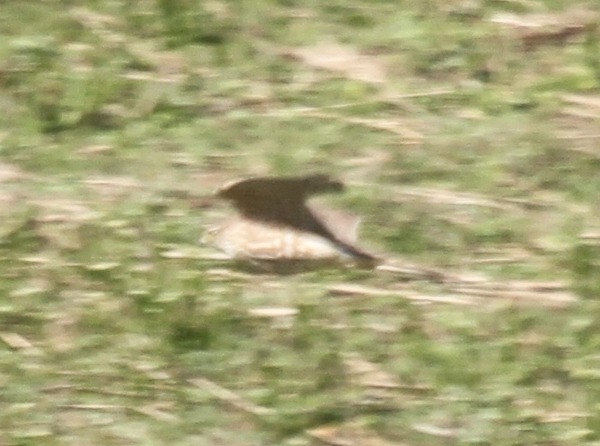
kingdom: Animalia
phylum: Chordata
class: Aves
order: Falconiformes
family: Falconidae
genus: Falco
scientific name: Falco columbarius
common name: Merlin
